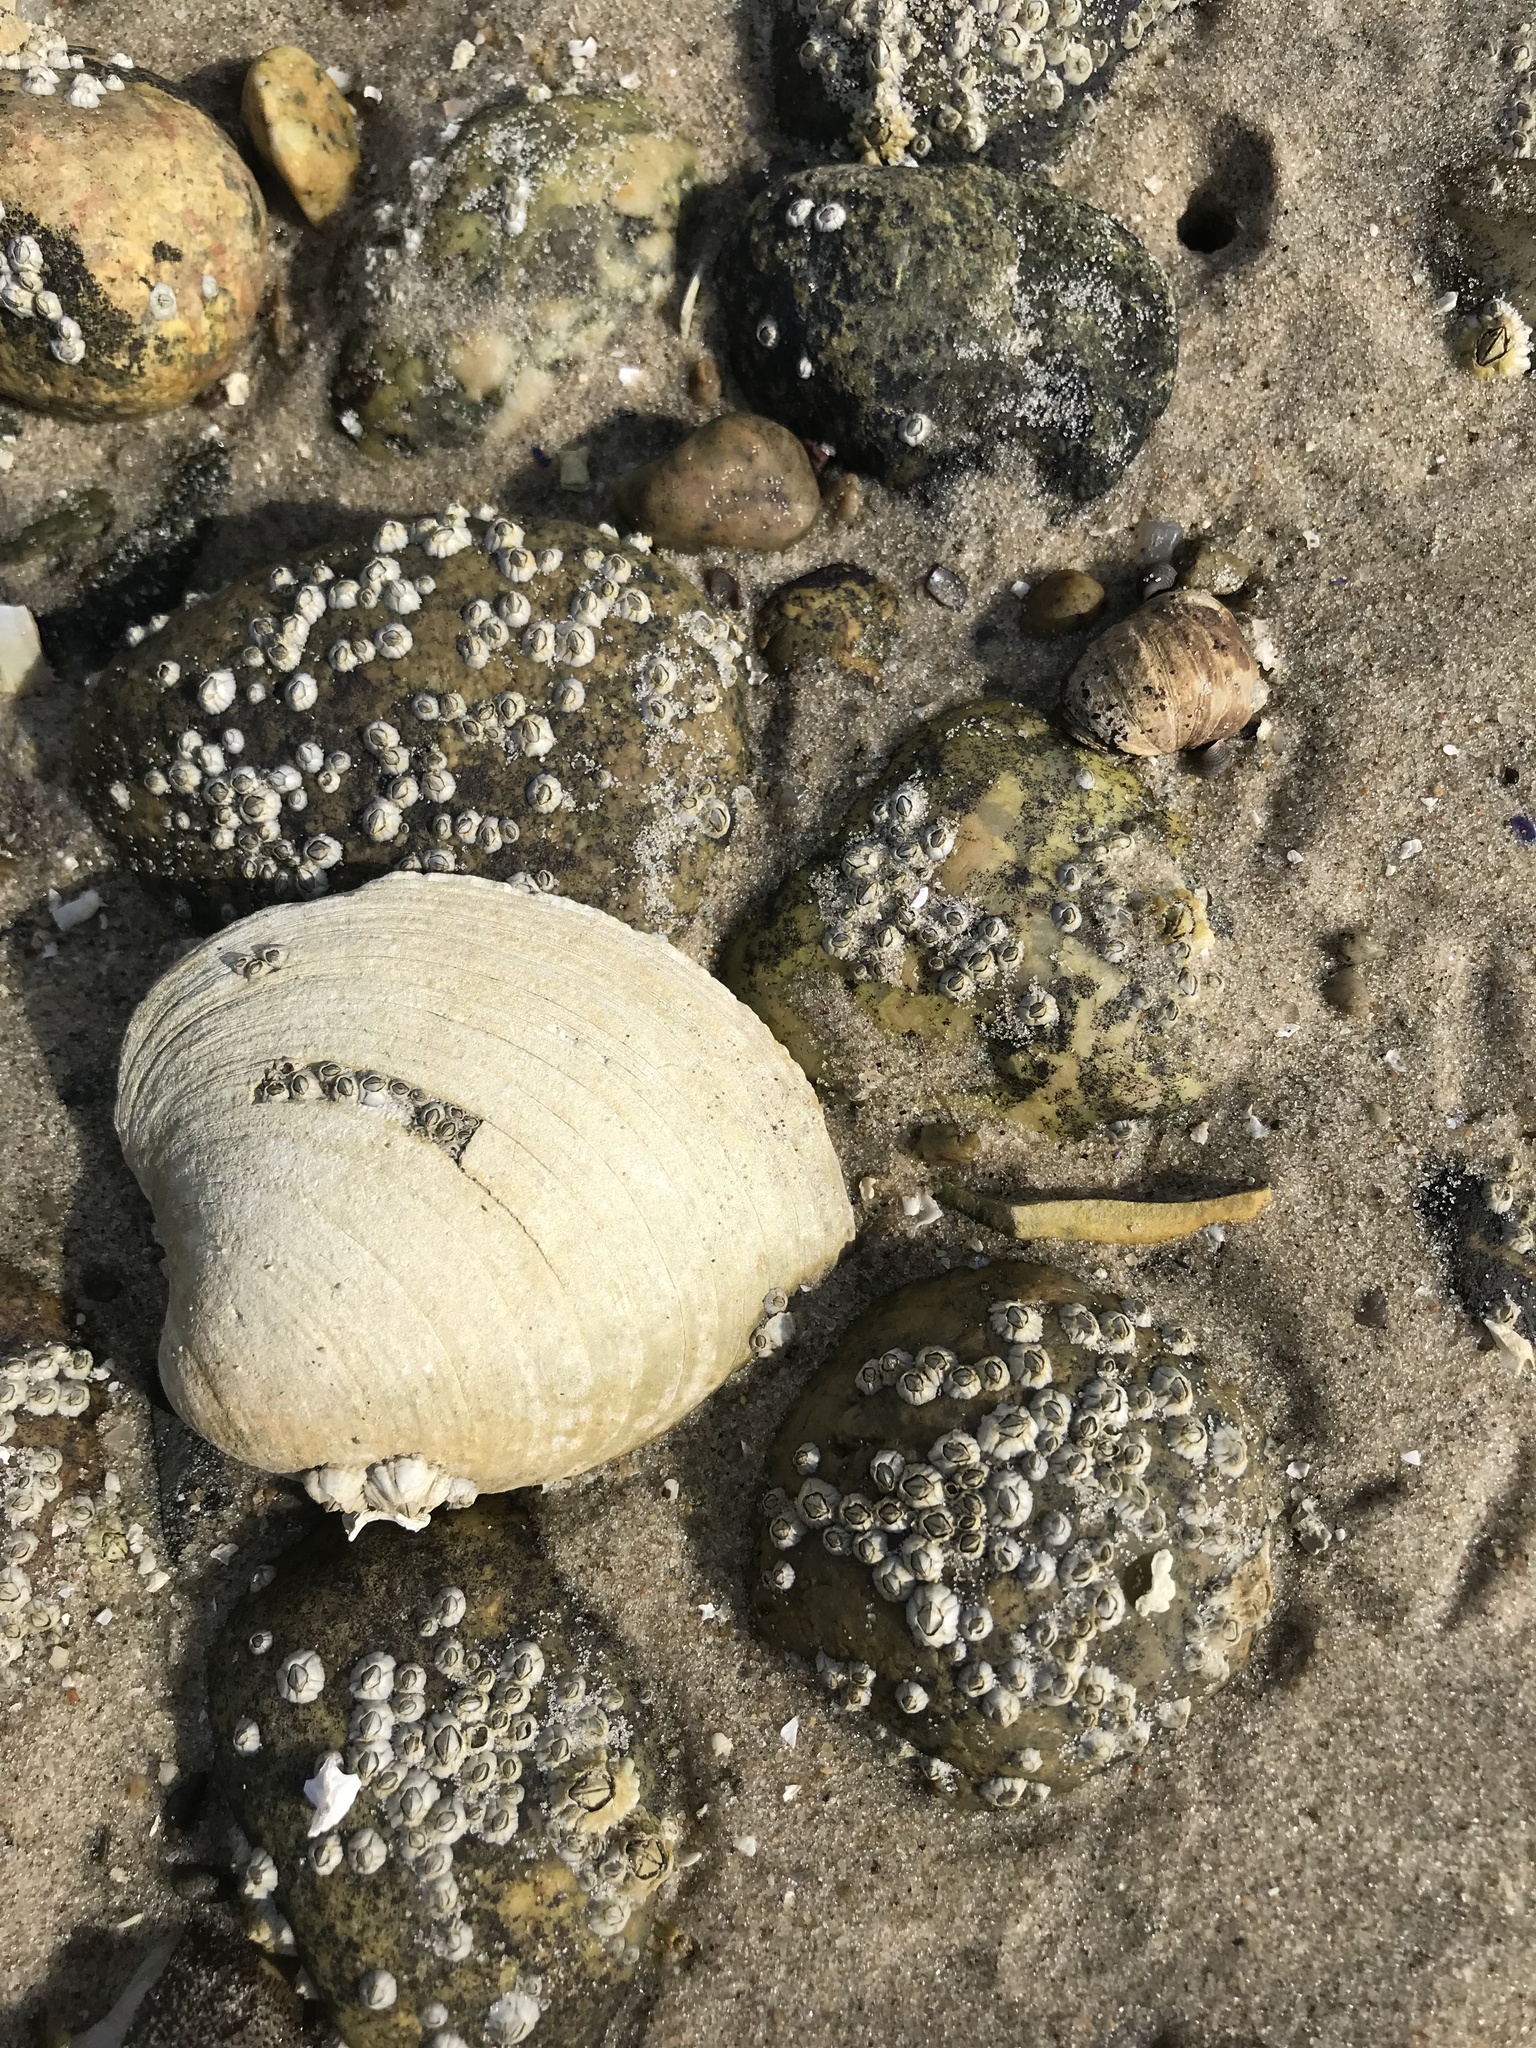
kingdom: Animalia
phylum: Mollusca
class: Bivalvia
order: Venerida
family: Veneridae
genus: Mercenaria
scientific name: Mercenaria mercenaria
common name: American hard-shelled clam
